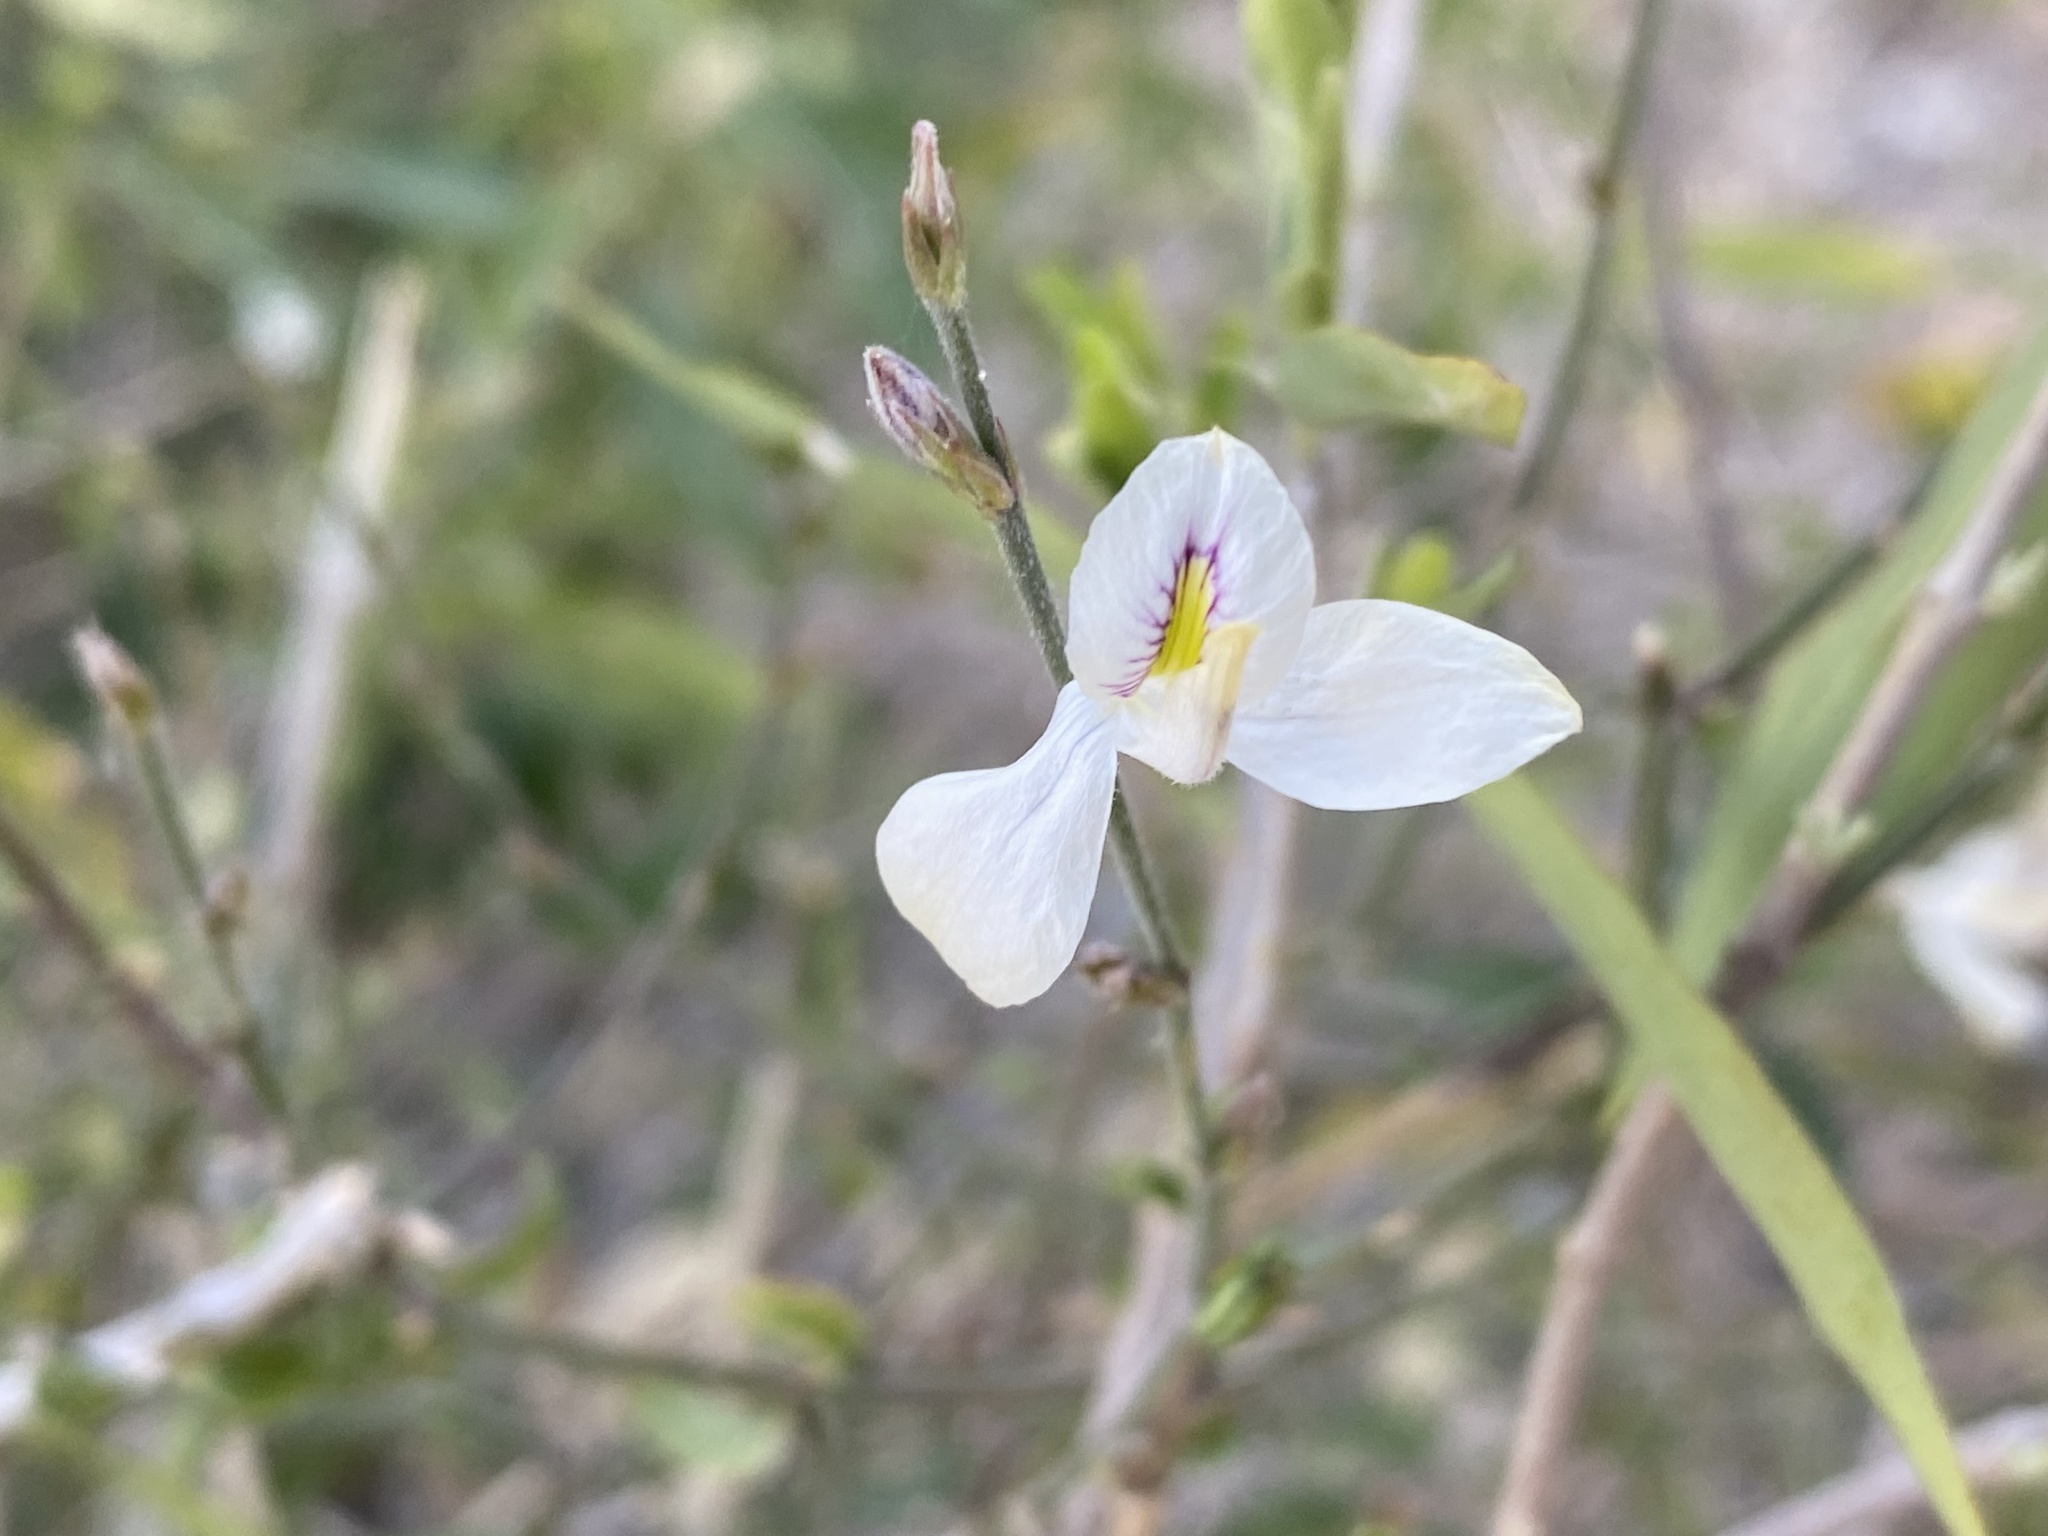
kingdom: Plantae
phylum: Tracheophyta
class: Magnoliopsida
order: Lamiales
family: Acanthaceae
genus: Carlowrightia
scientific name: Carlowrightia arizonica
